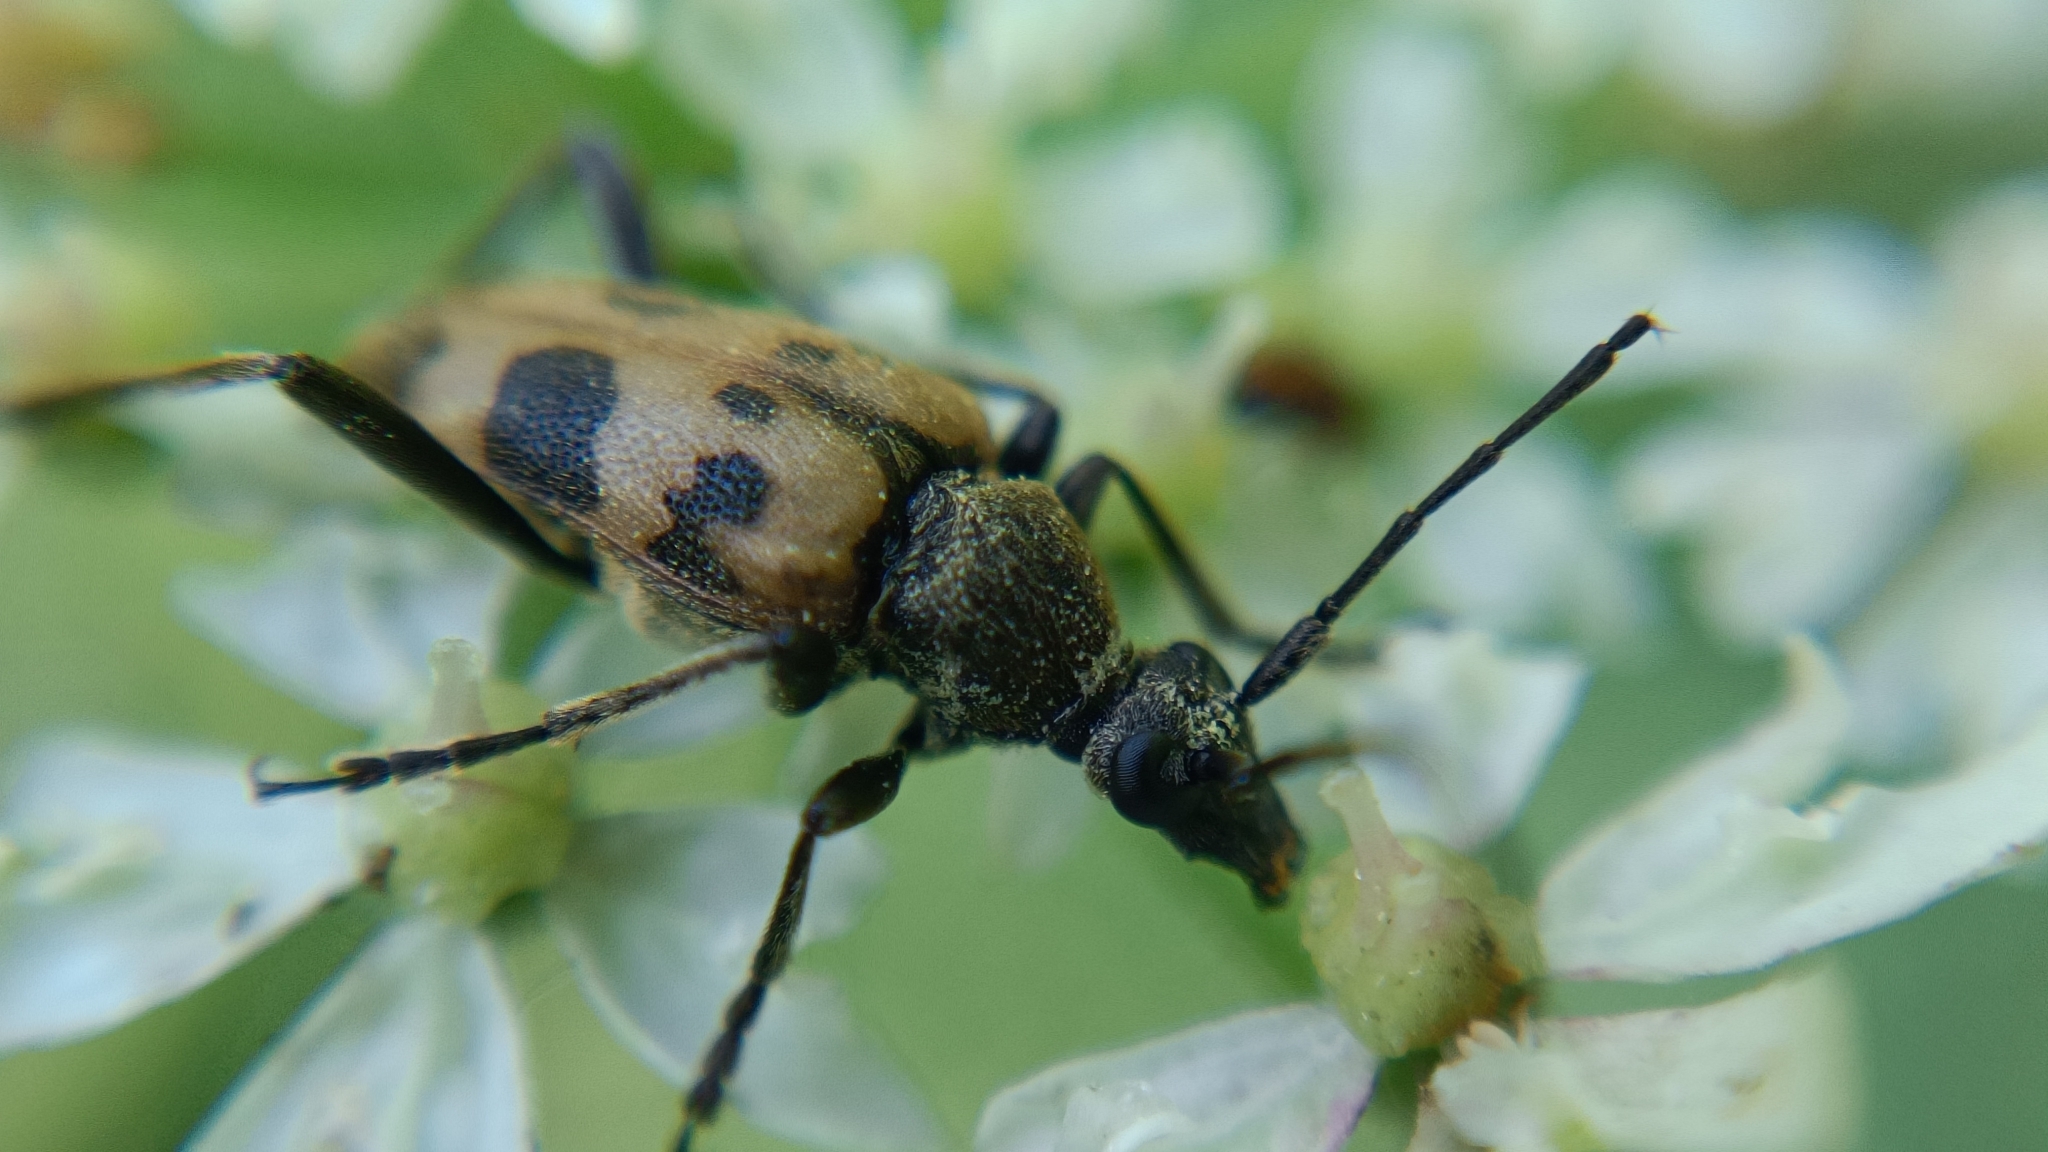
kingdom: Animalia
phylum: Arthropoda
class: Insecta
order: Coleoptera
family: Cerambycidae
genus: Pachytodes
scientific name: Pachytodes cerambyciformis
